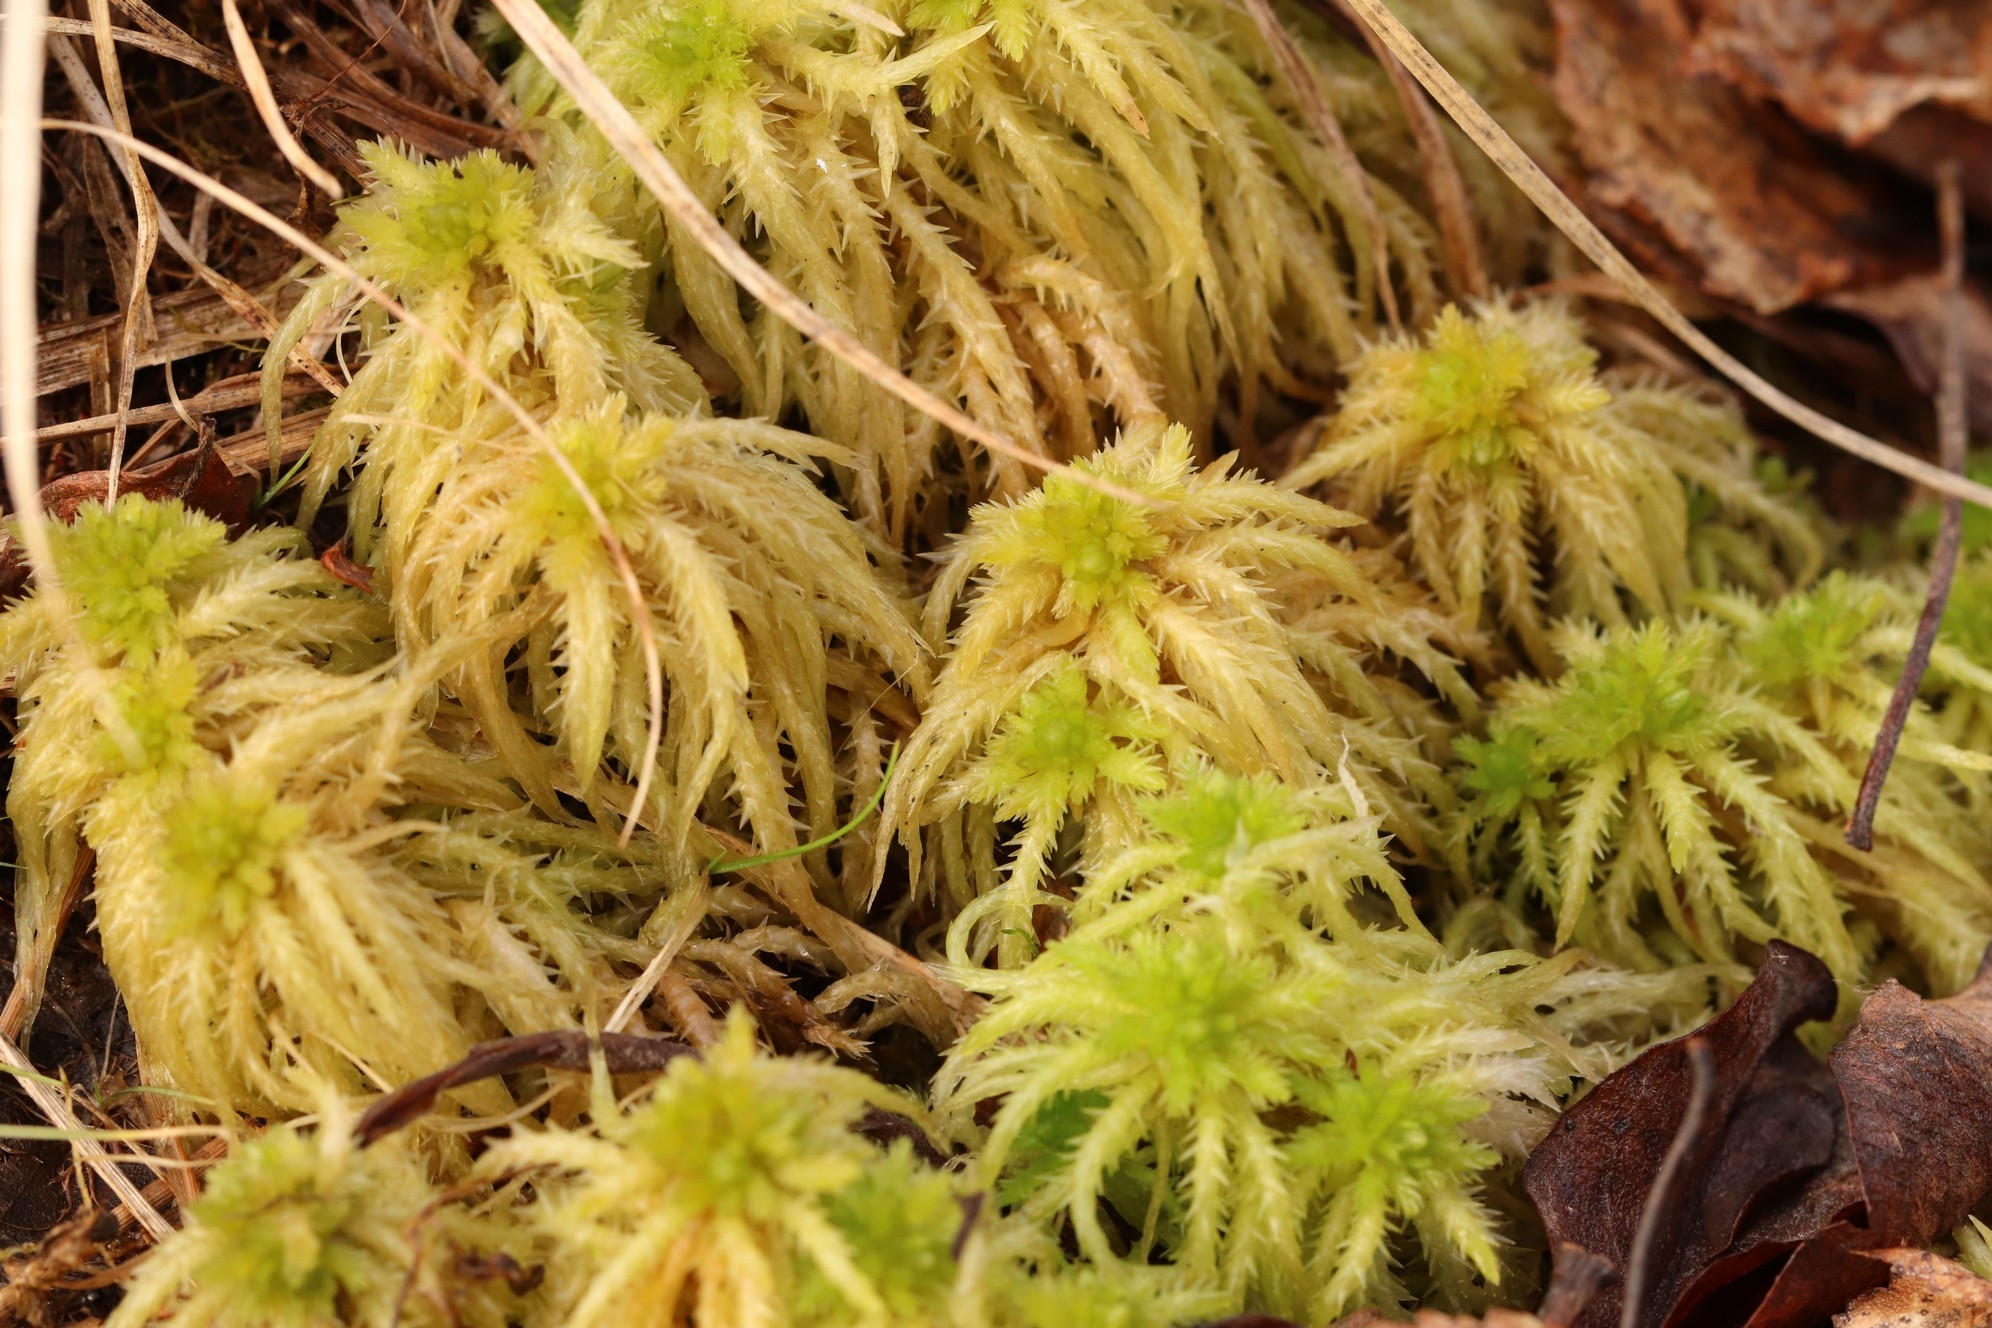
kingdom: Plantae
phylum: Bryophyta
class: Sphagnopsida
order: Sphagnales
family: Sphagnaceae
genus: Sphagnum
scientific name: Sphagnum squarrosum
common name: Shaggy peat moss
